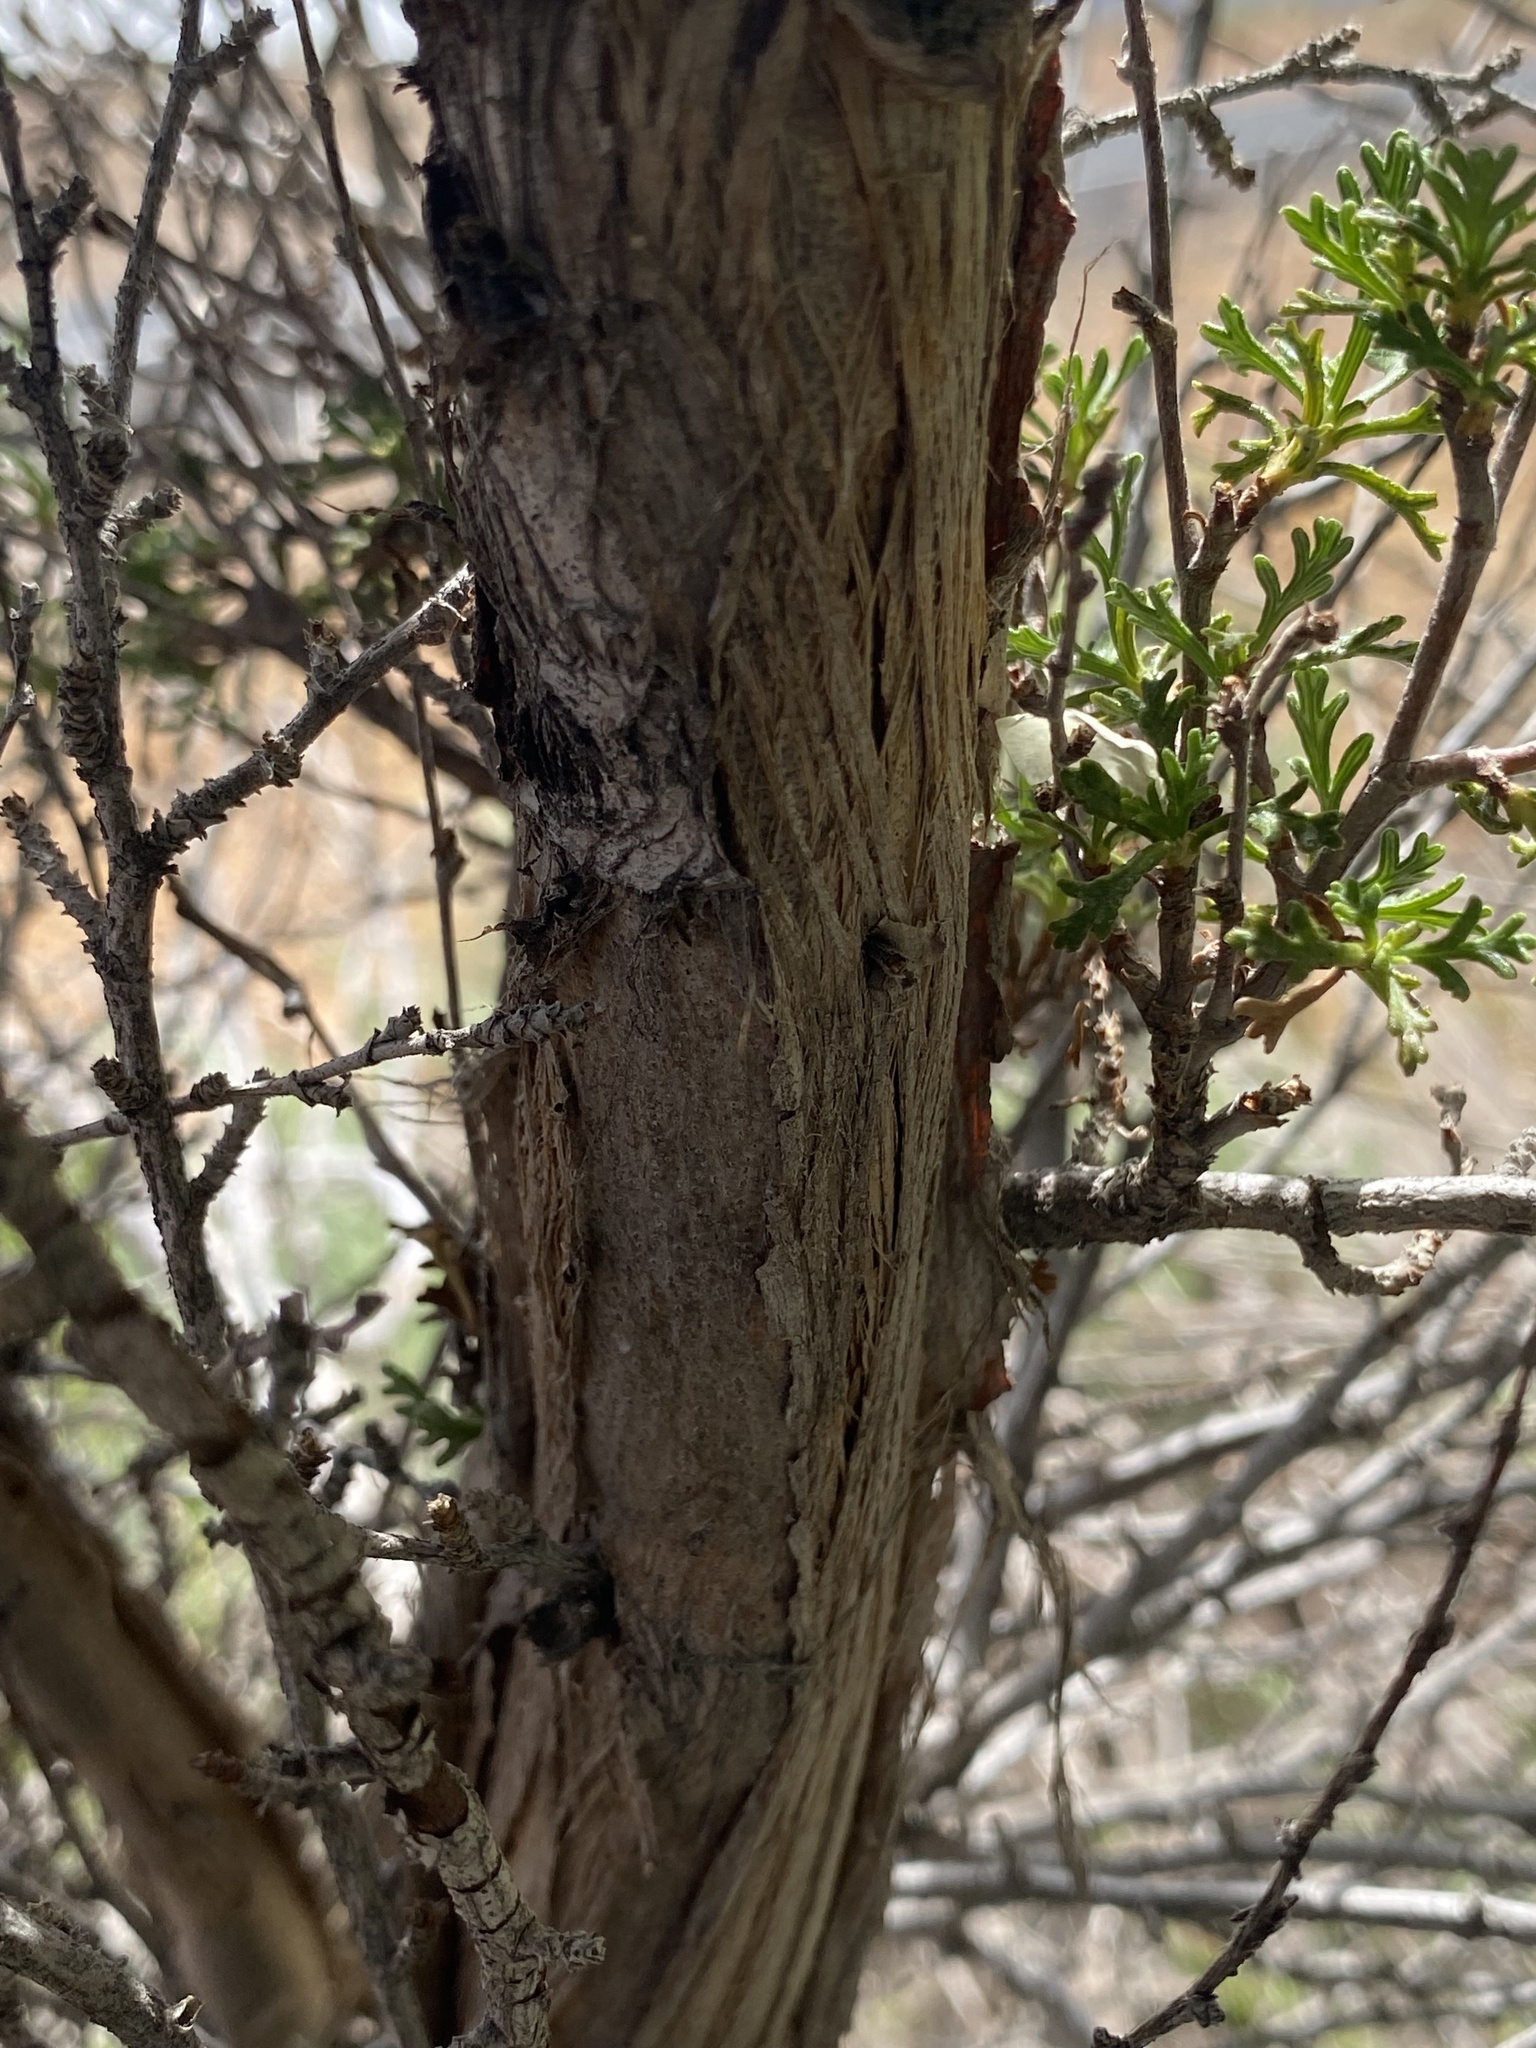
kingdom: Plantae
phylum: Tracheophyta
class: Magnoliopsida
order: Rosales
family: Rosaceae
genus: Purshia
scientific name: Purshia stansburiana
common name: Stansbury's cliffrose
